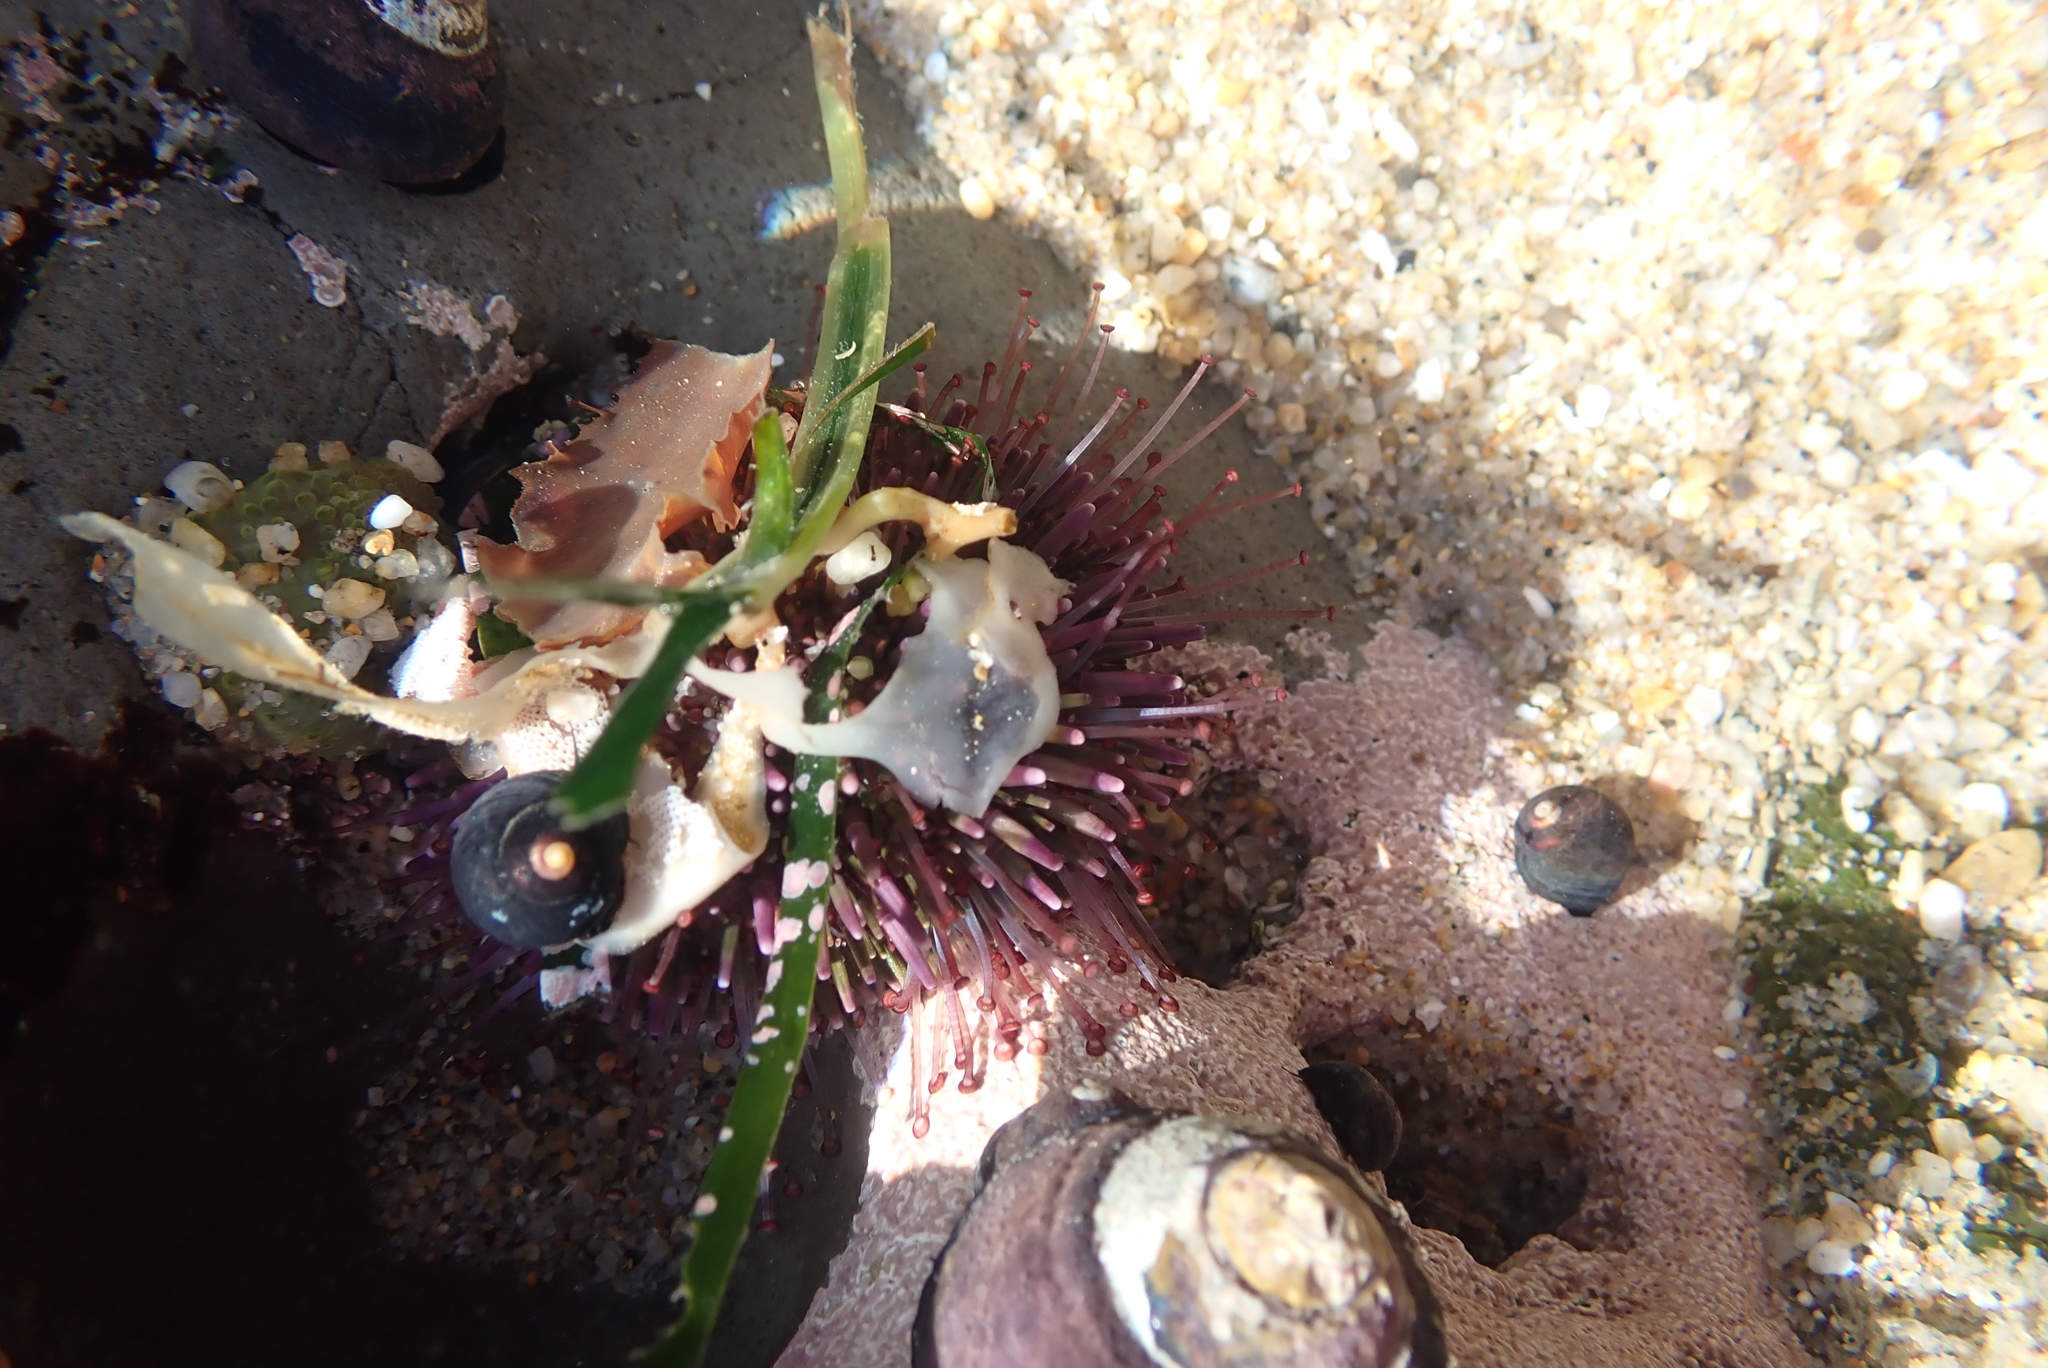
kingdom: Animalia
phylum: Echinodermata
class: Echinoidea
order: Camarodonta
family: Strongylocentrotidae
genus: Strongylocentrotus
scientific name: Strongylocentrotus purpuratus
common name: Purple sea urchin
